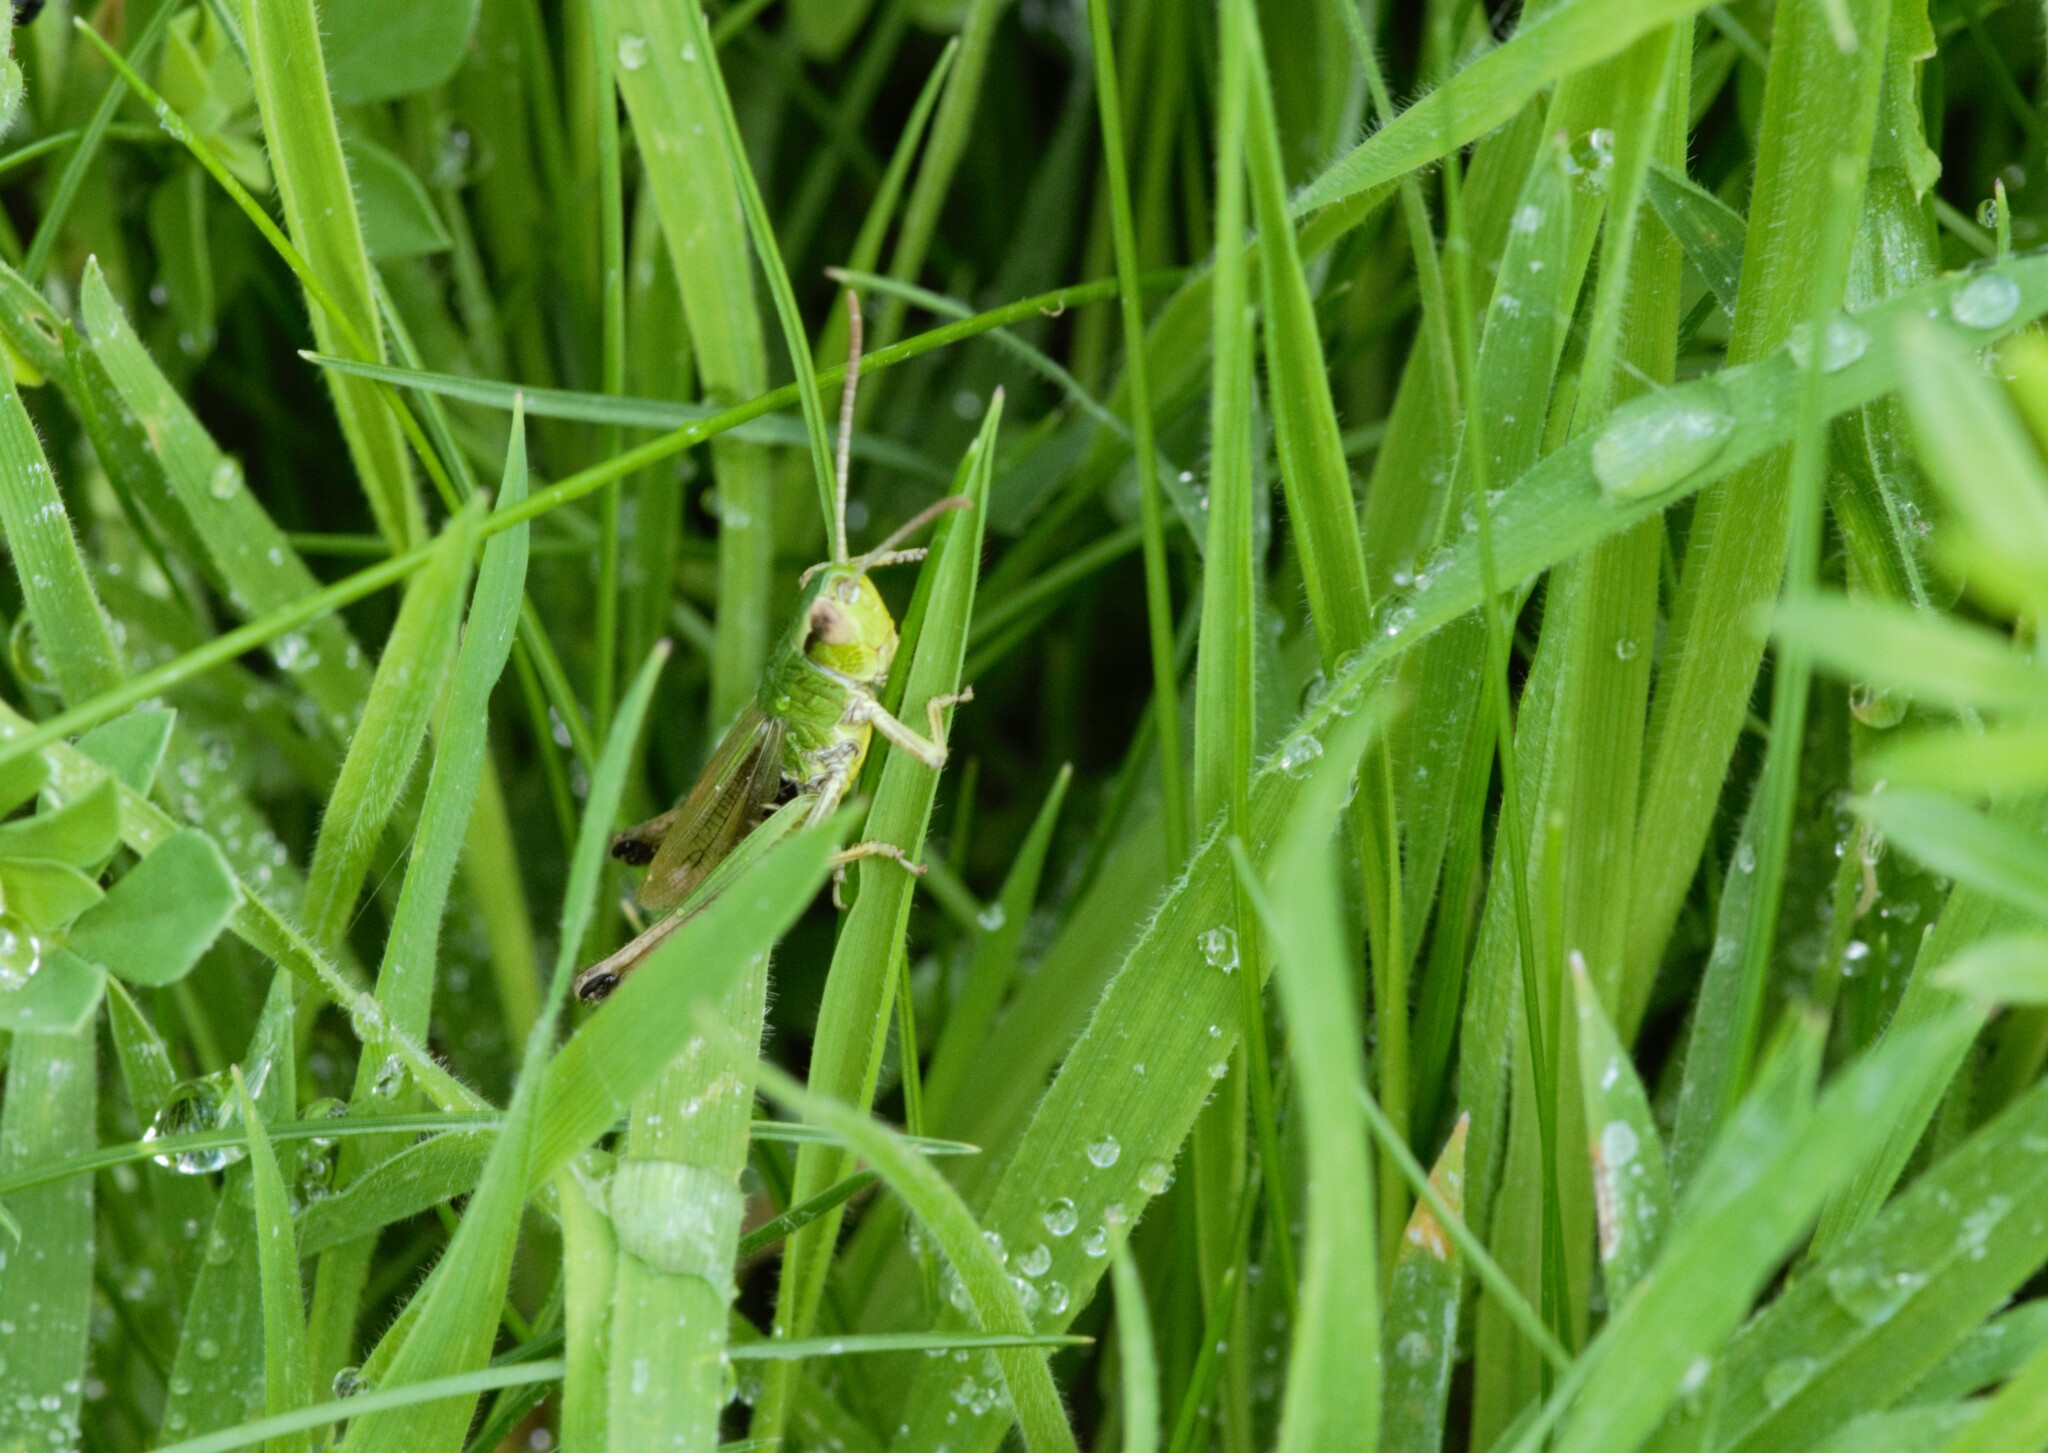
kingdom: Animalia
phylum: Arthropoda
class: Insecta
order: Orthoptera
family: Acrididae
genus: Pseudochorthippus
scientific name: Pseudochorthippus parallelus
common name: Meadow grasshopper
